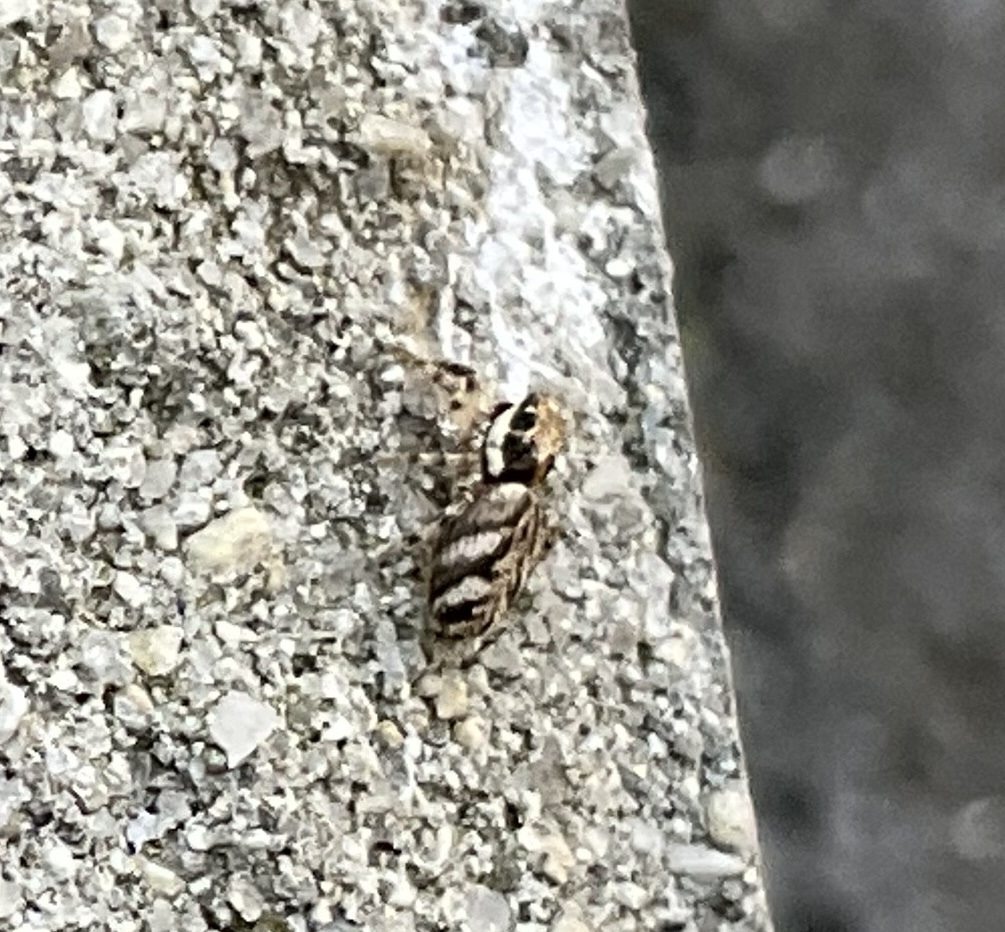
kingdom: Animalia
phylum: Arthropoda
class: Arachnida
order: Araneae
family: Salticidae
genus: Salticus
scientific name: Salticus cingulatus
